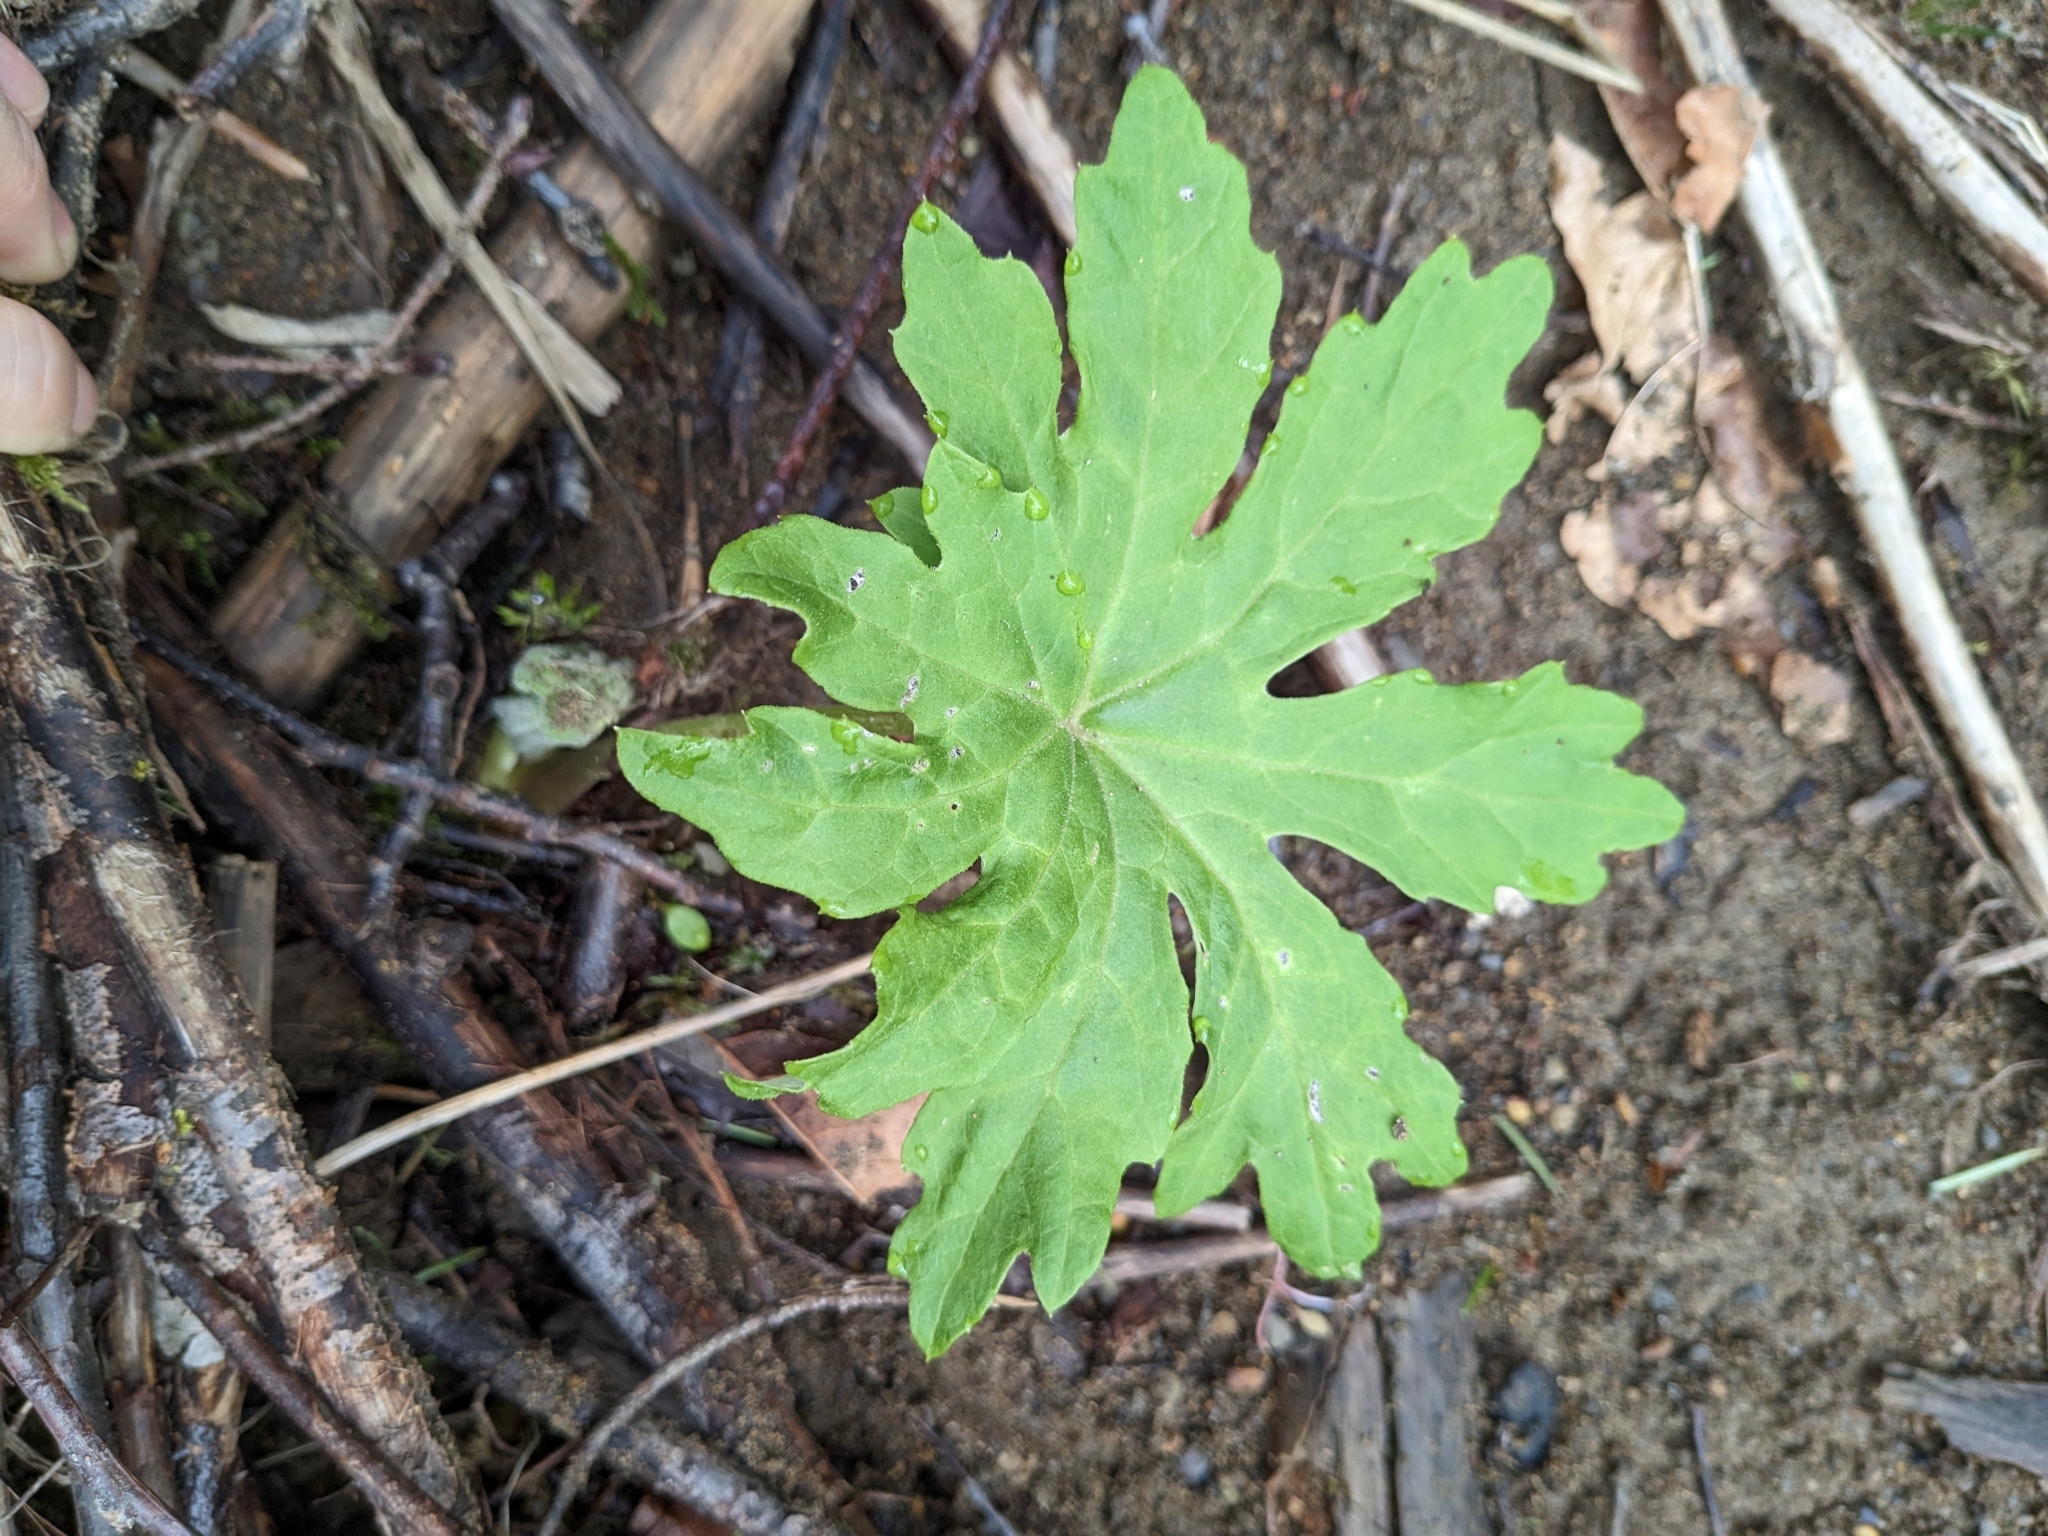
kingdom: Plantae
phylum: Tracheophyta
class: Magnoliopsida
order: Asterales
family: Asteraceae
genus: Petasites
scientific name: Petasites frigidus
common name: Arctic butterbur
